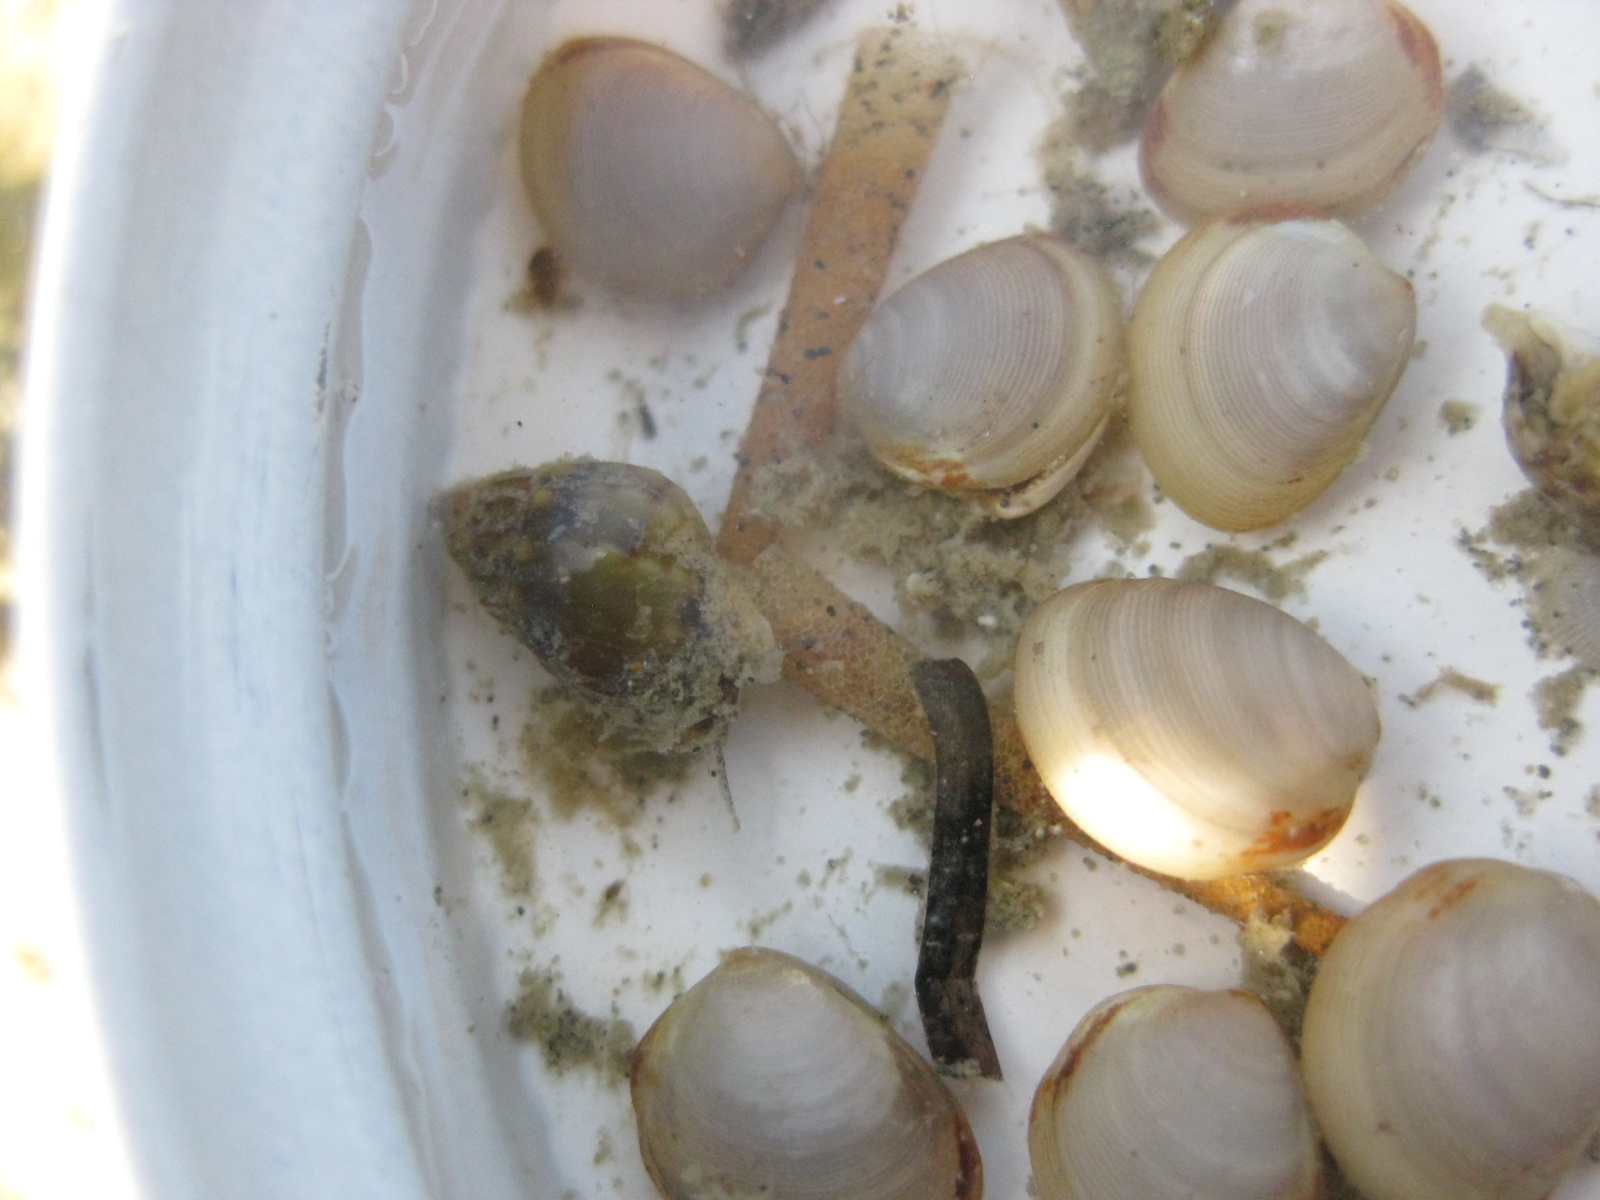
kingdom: Animalia
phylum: Mollusca
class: Gastropoda
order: Neogastropoda
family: Nassariidae
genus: Tritia
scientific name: Tritia burchardi
